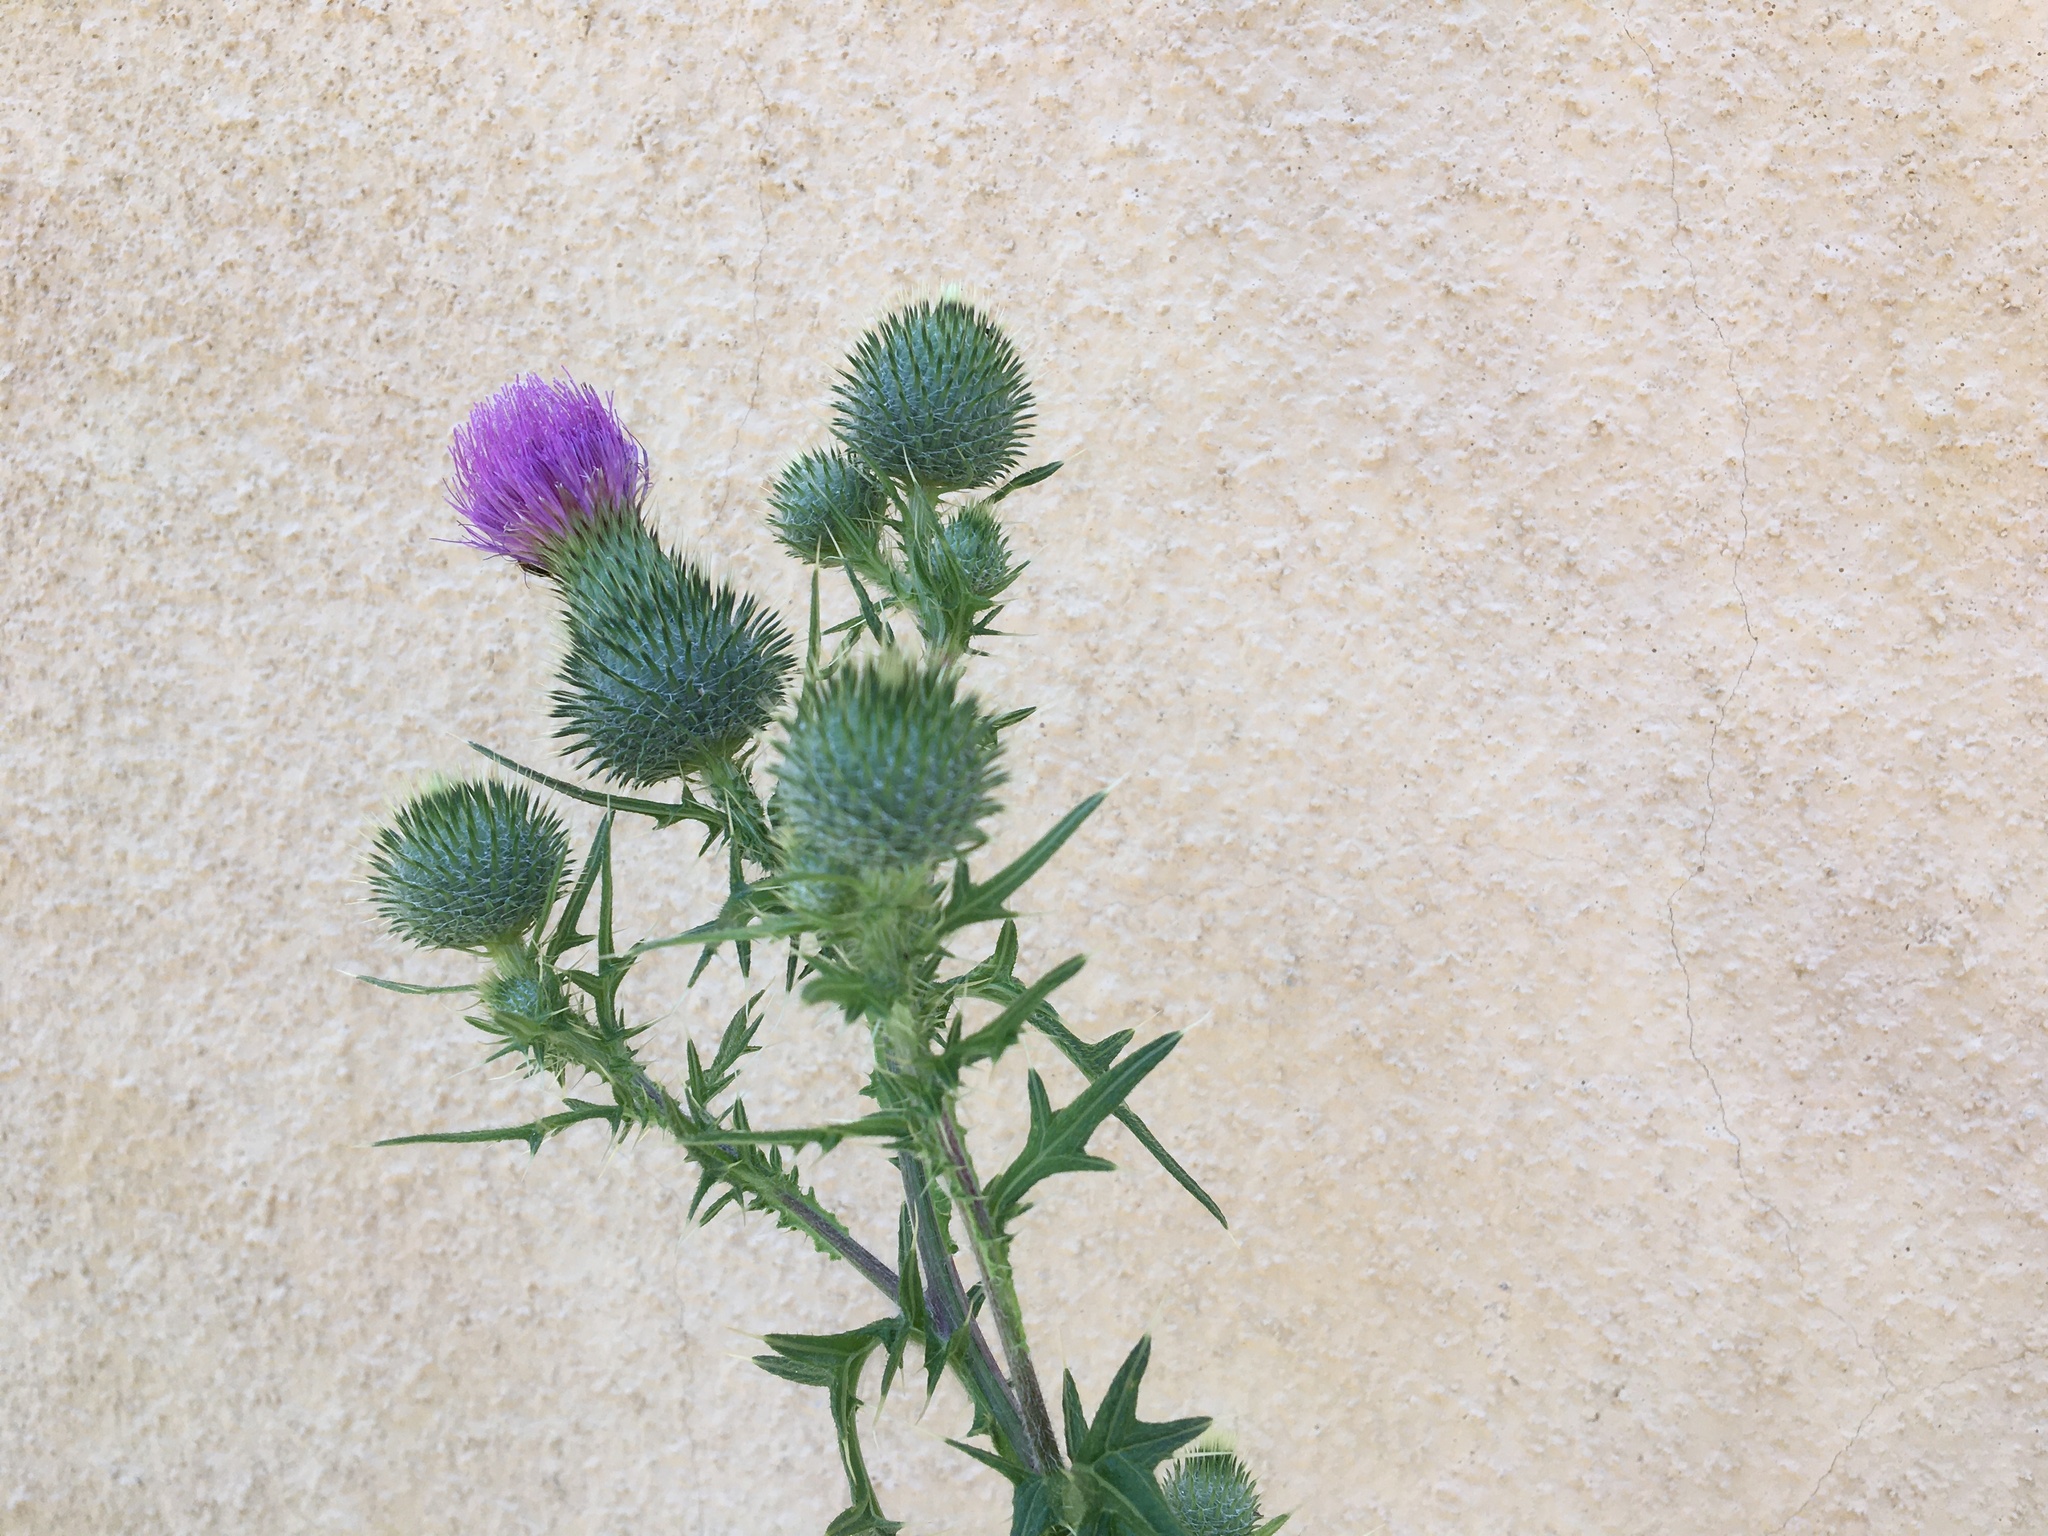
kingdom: Plantae
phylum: Tracheophyta
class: Magnoliopsida
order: Asterales
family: Asteraceae
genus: Cirsium
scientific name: Cirsium vulgare
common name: Bull thistle
